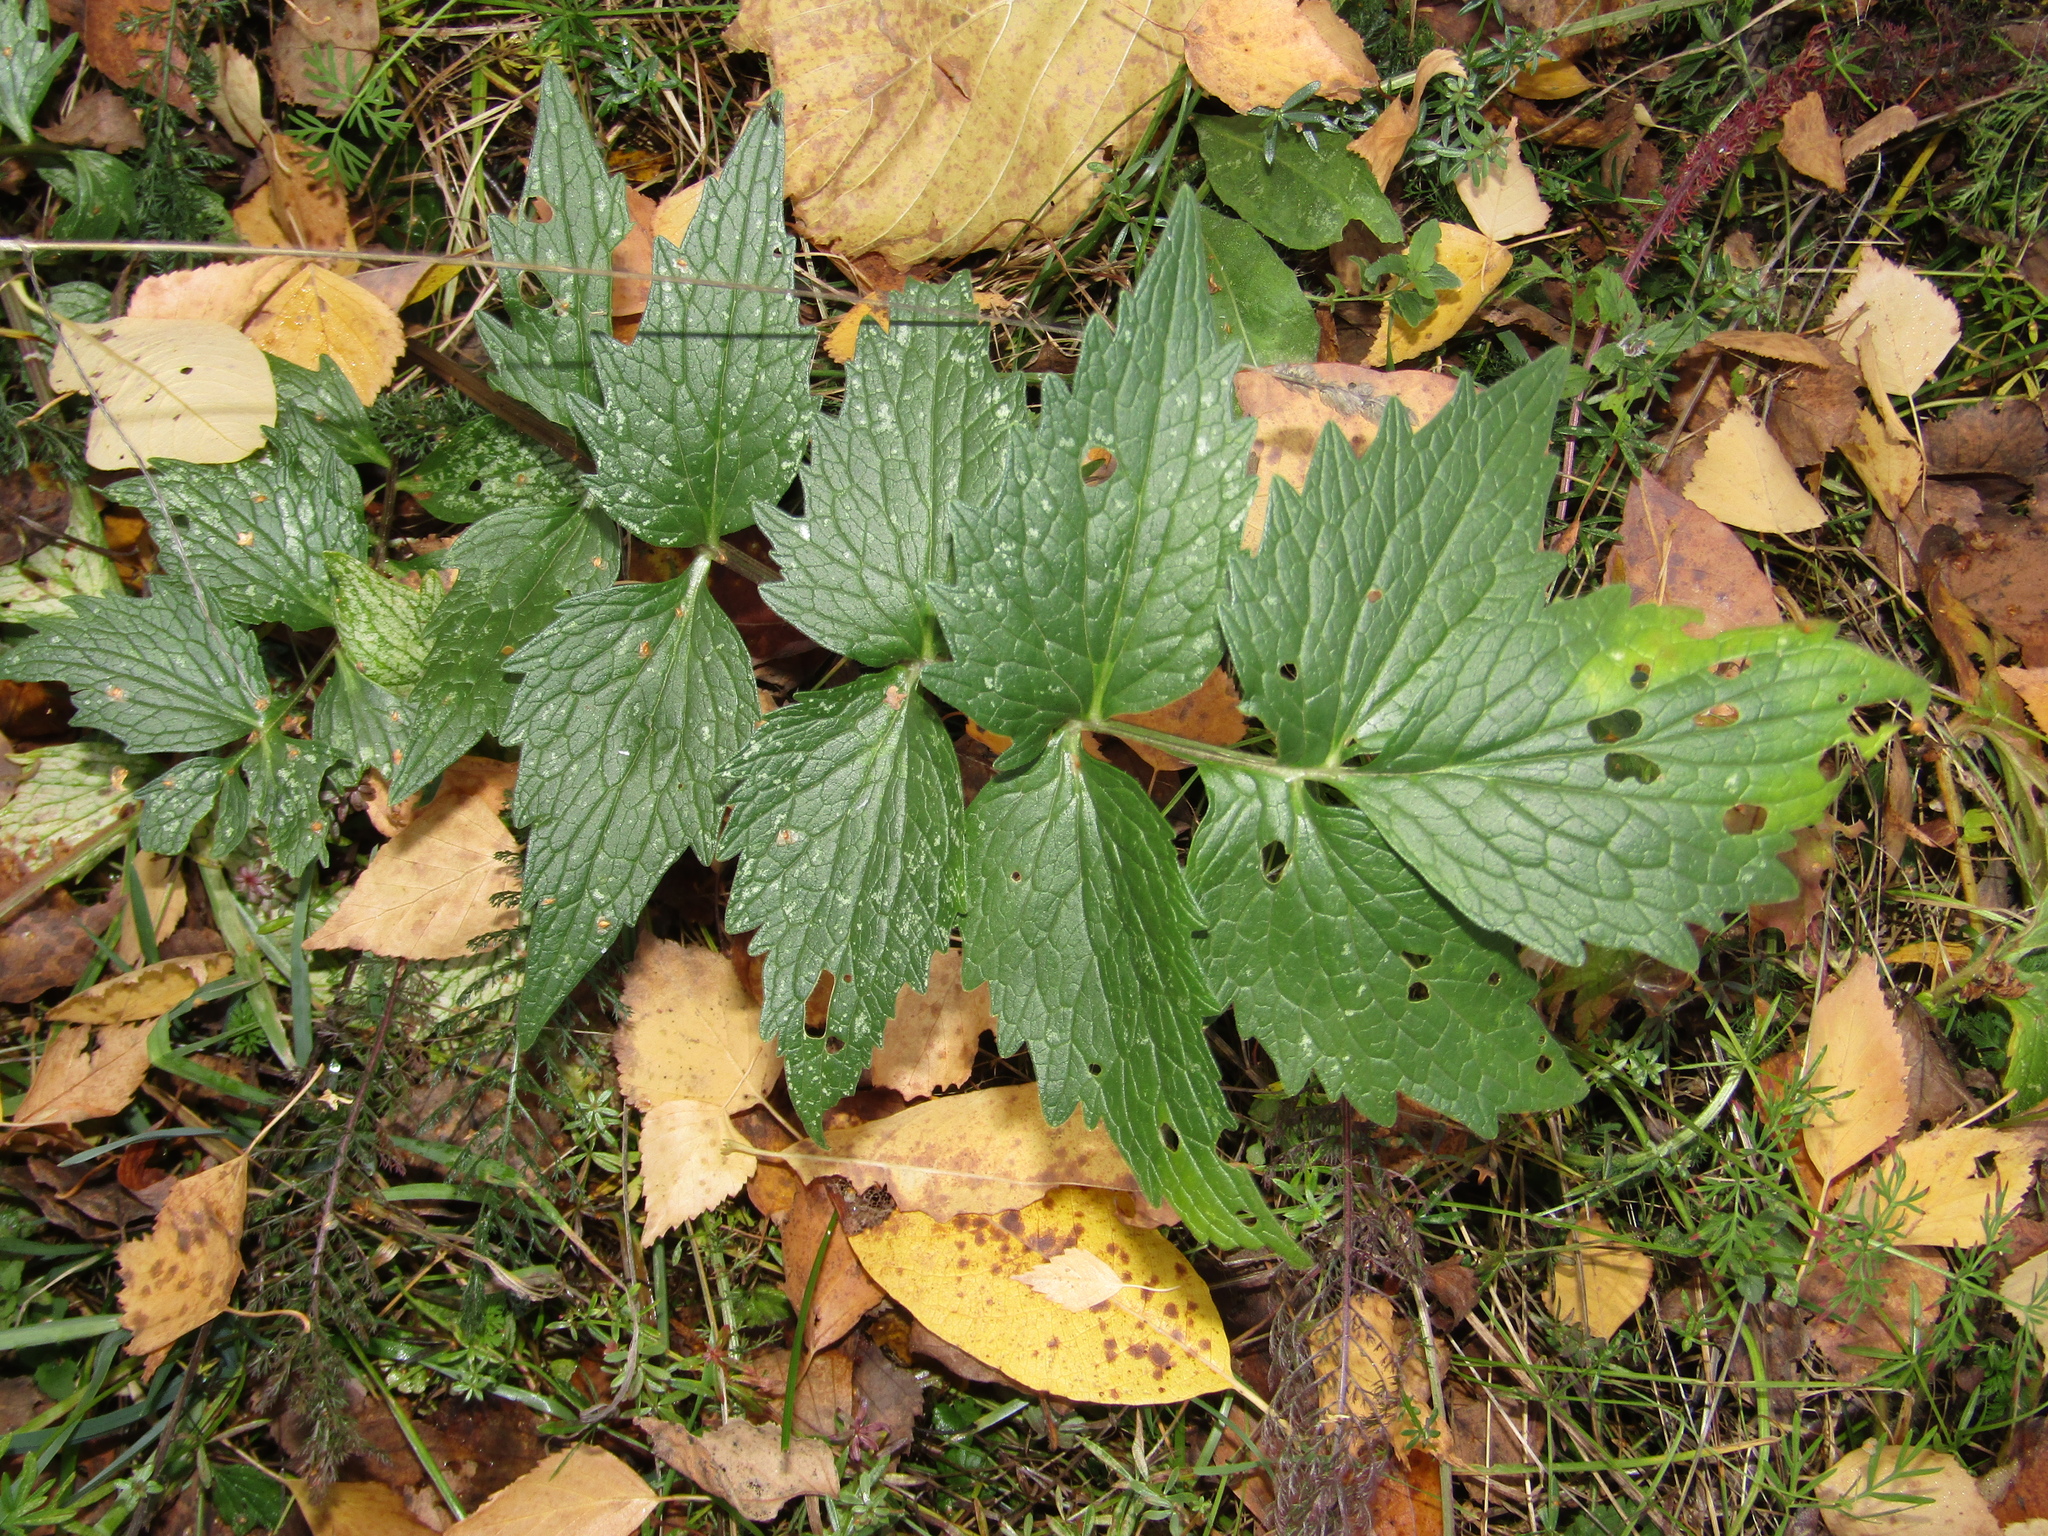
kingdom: Plantae
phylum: Tracheophyta
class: Magnoliopsida
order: Dipsacales
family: Caprifoliaceae
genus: Valeriana
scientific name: Valeriana officinalis
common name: Common valerian
